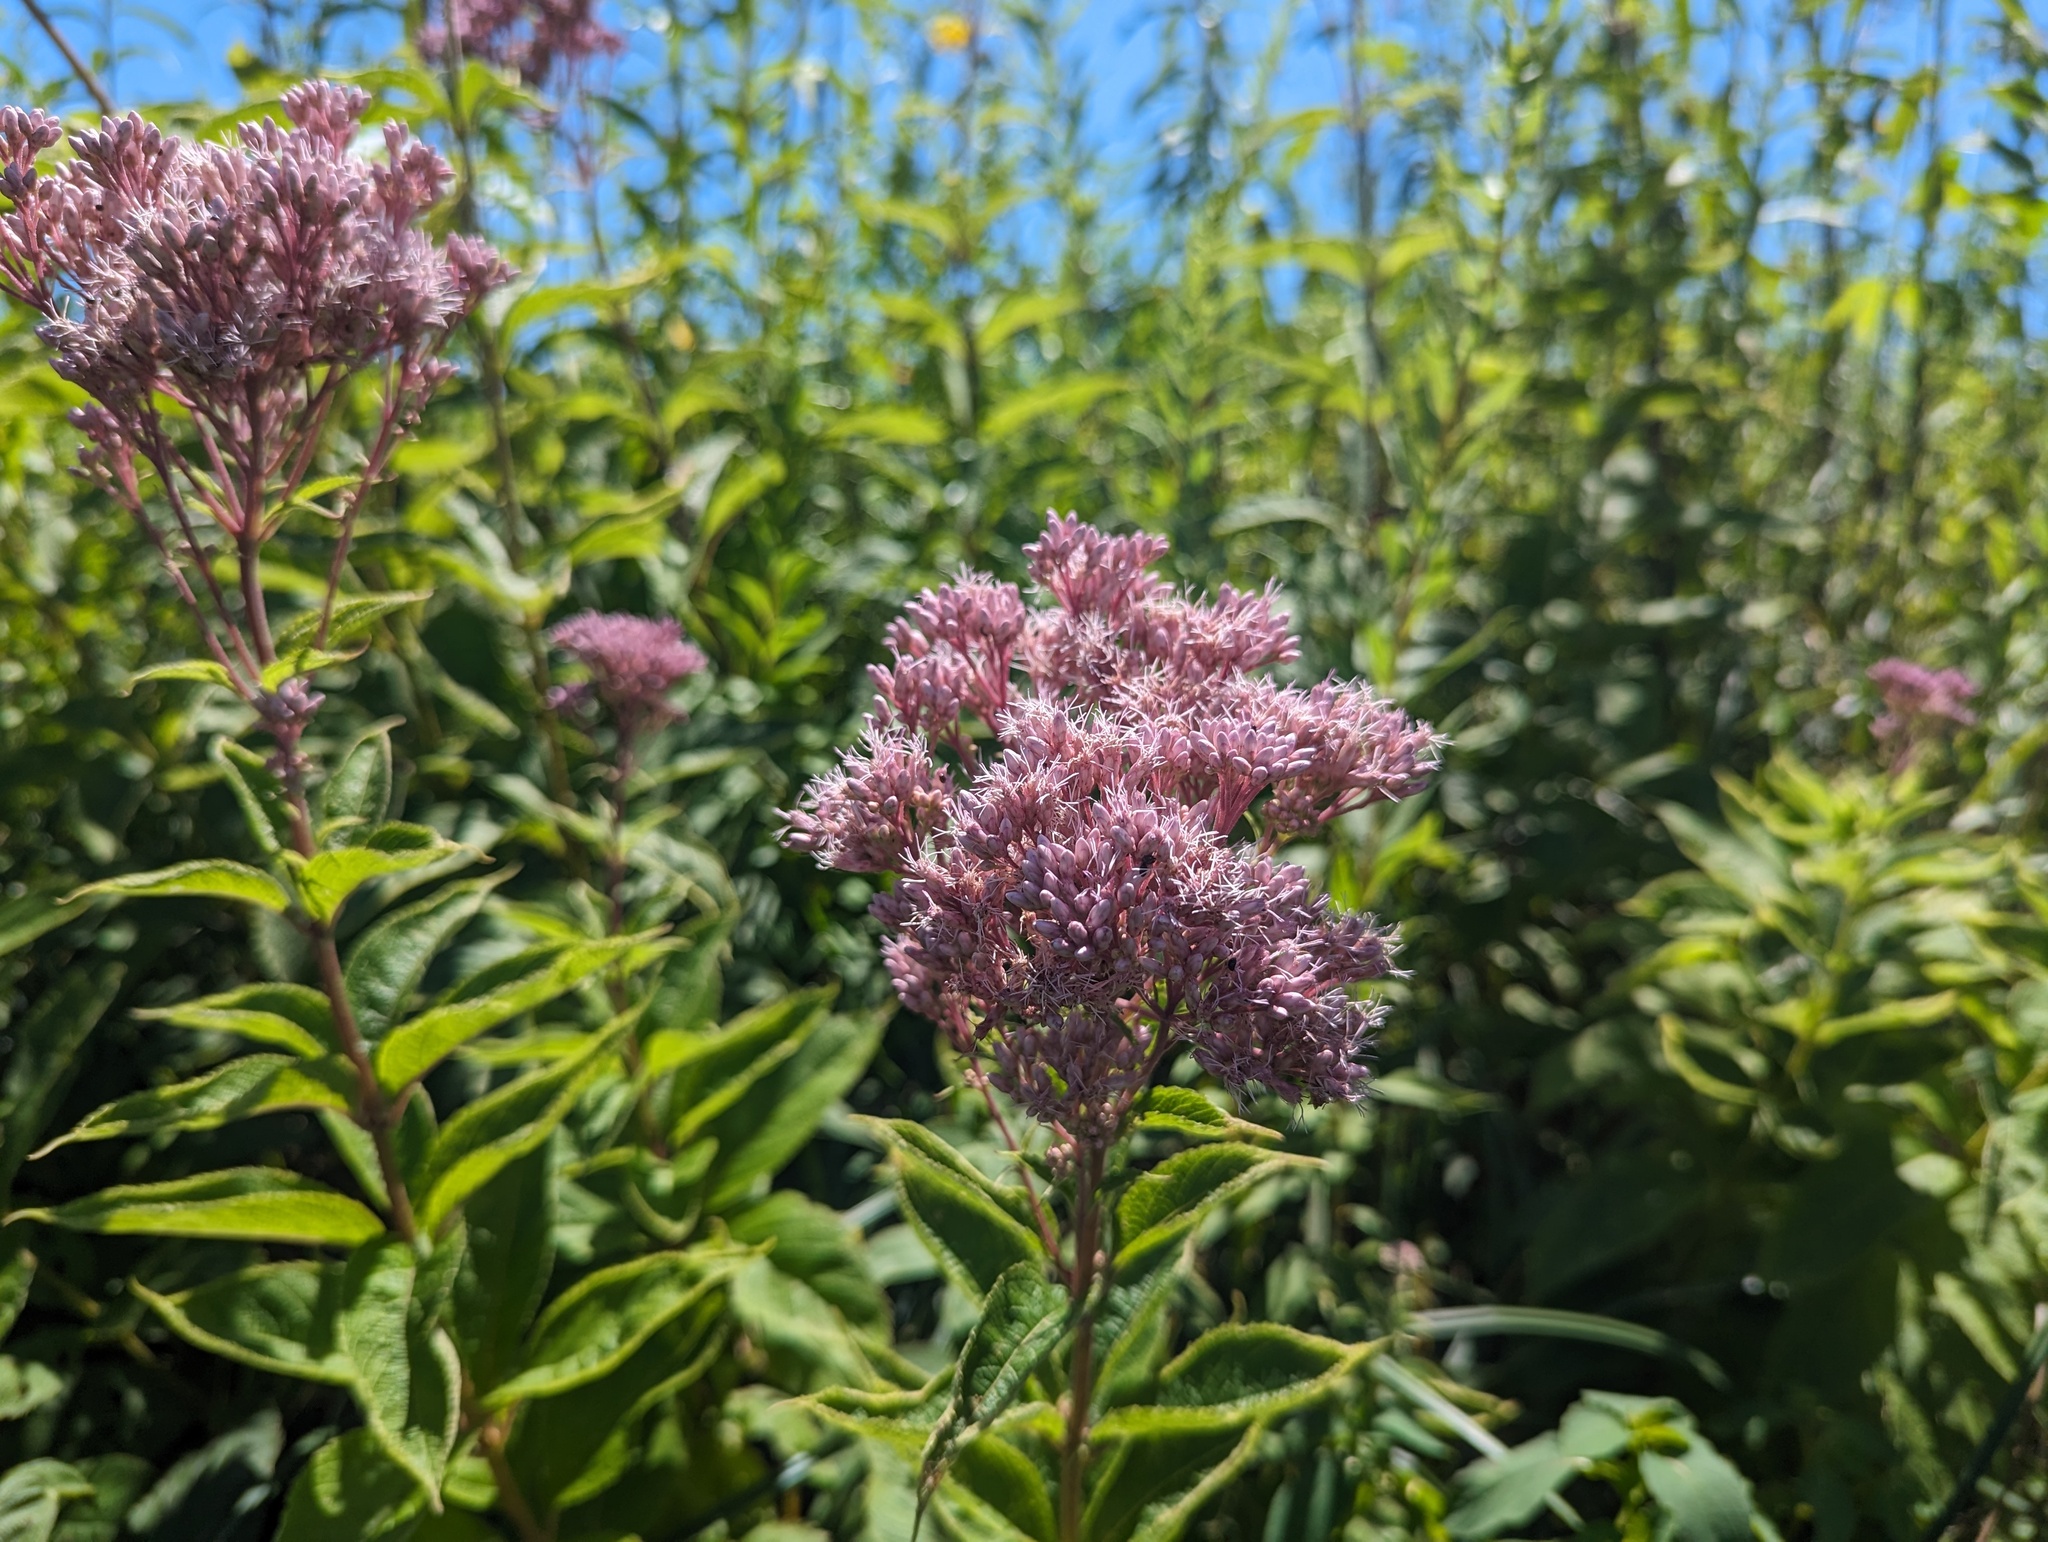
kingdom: Plantae
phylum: Tracheophyta
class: Magnoliopsida
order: Asterales
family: Asteraceae
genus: Eutrochium
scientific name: Eutrochium maculatum
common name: Spotted joe pye weed
